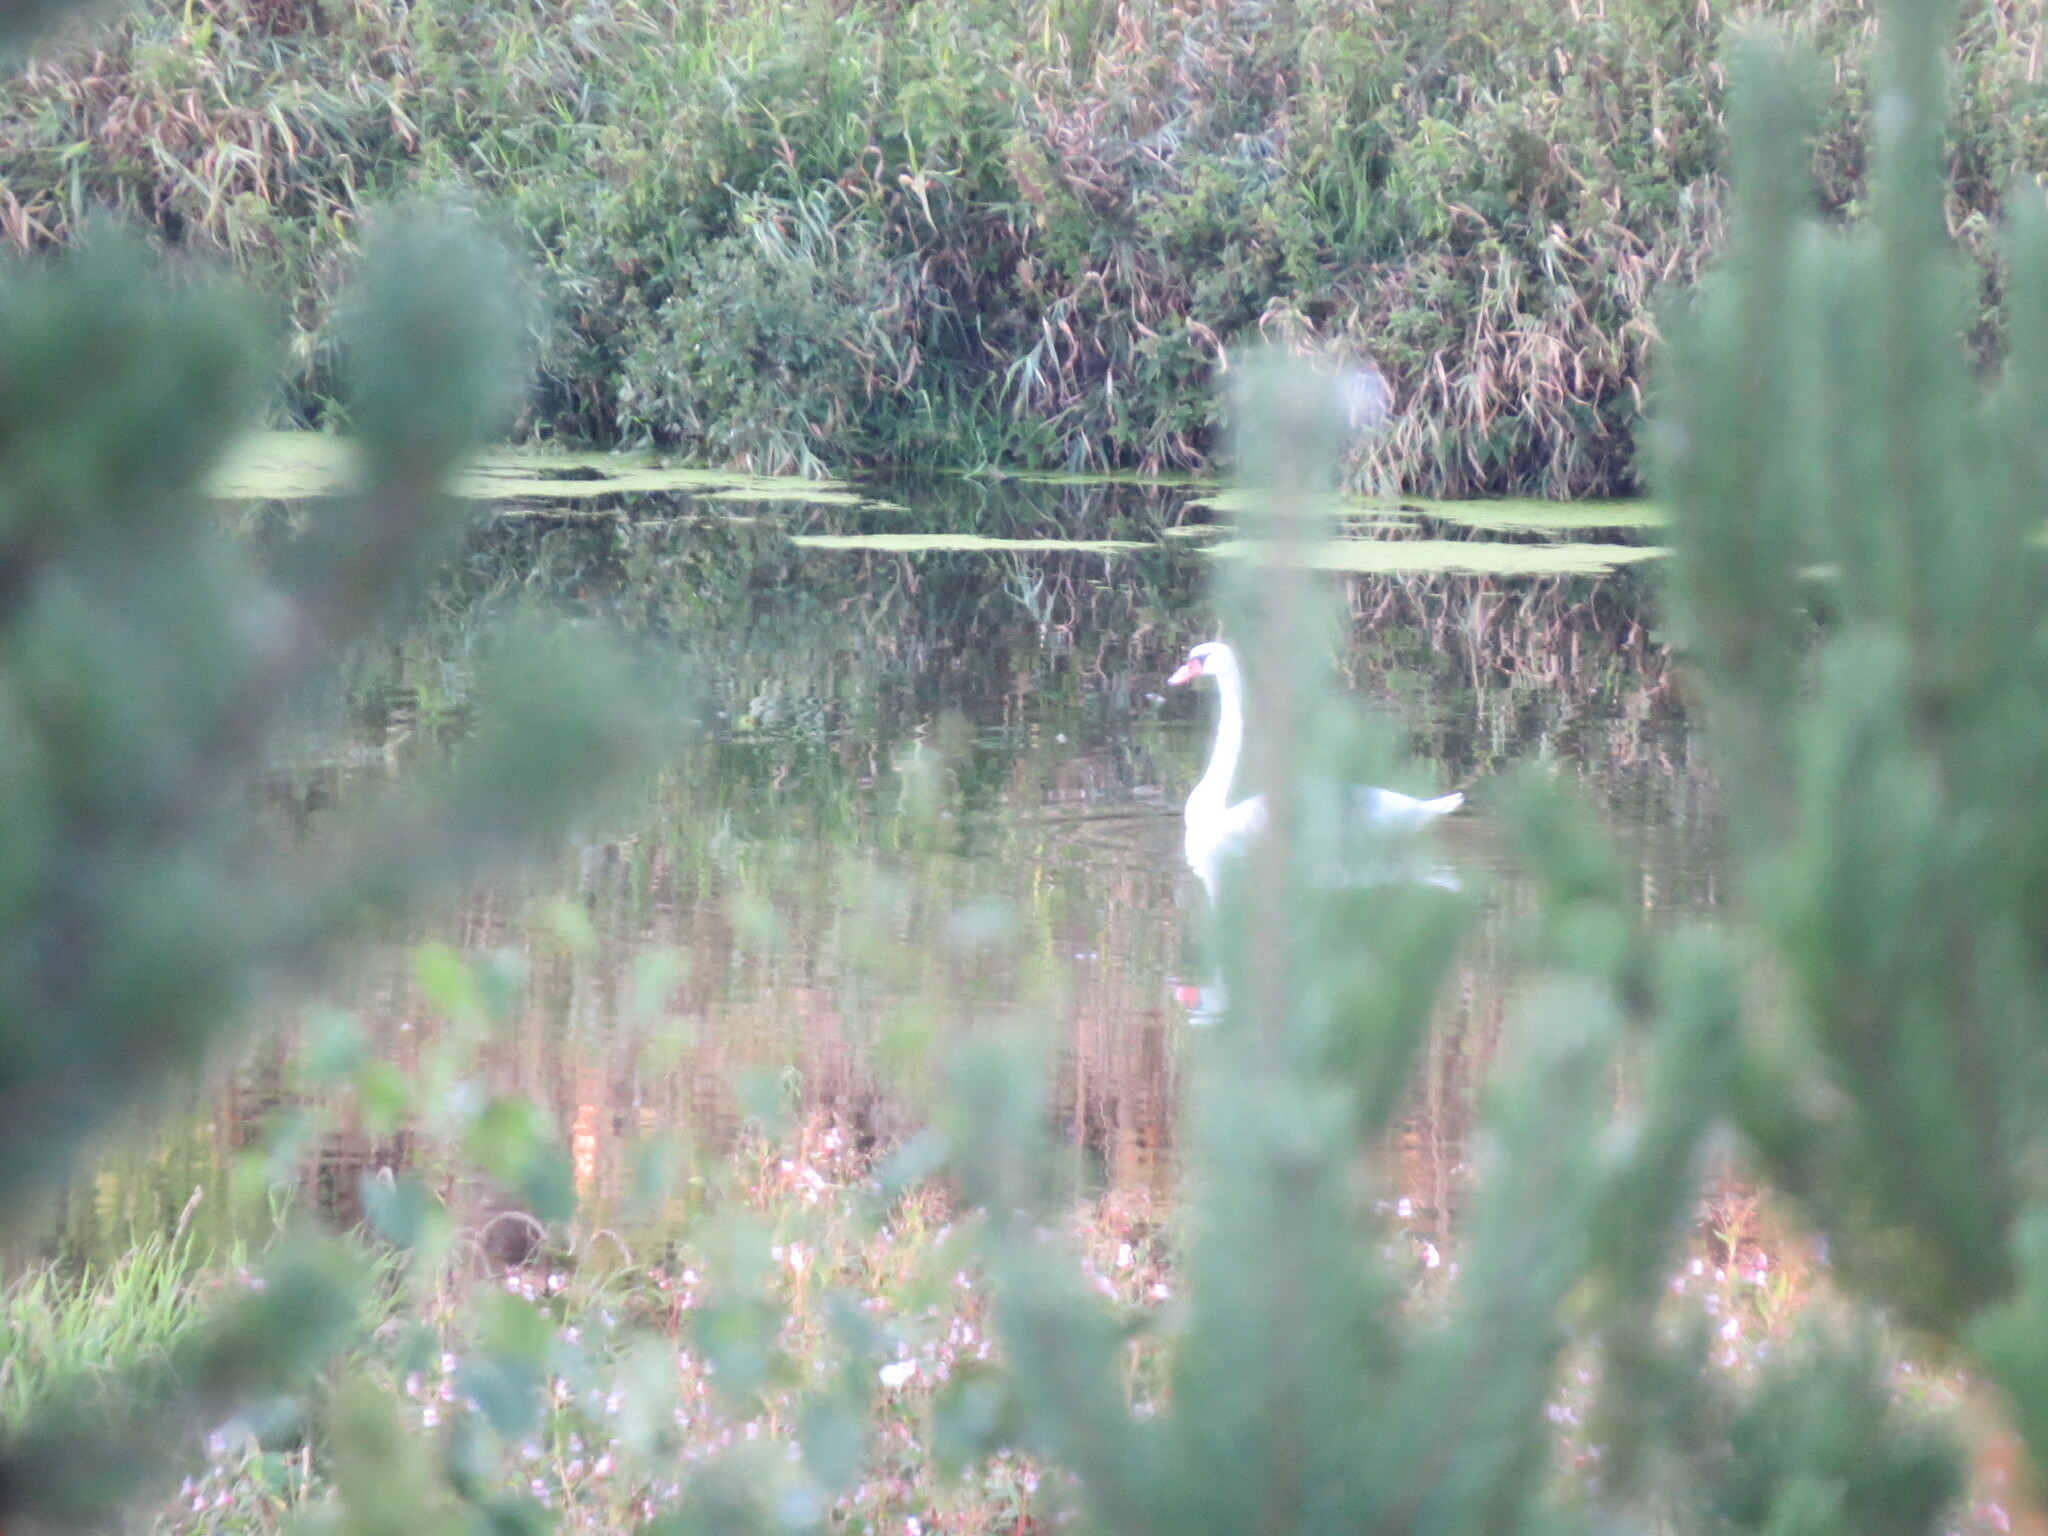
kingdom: Animalia
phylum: Chordata
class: Aves
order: Anseriformes
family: Anatidae
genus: Cygnus
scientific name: Cygnus olor
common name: Mute swan
